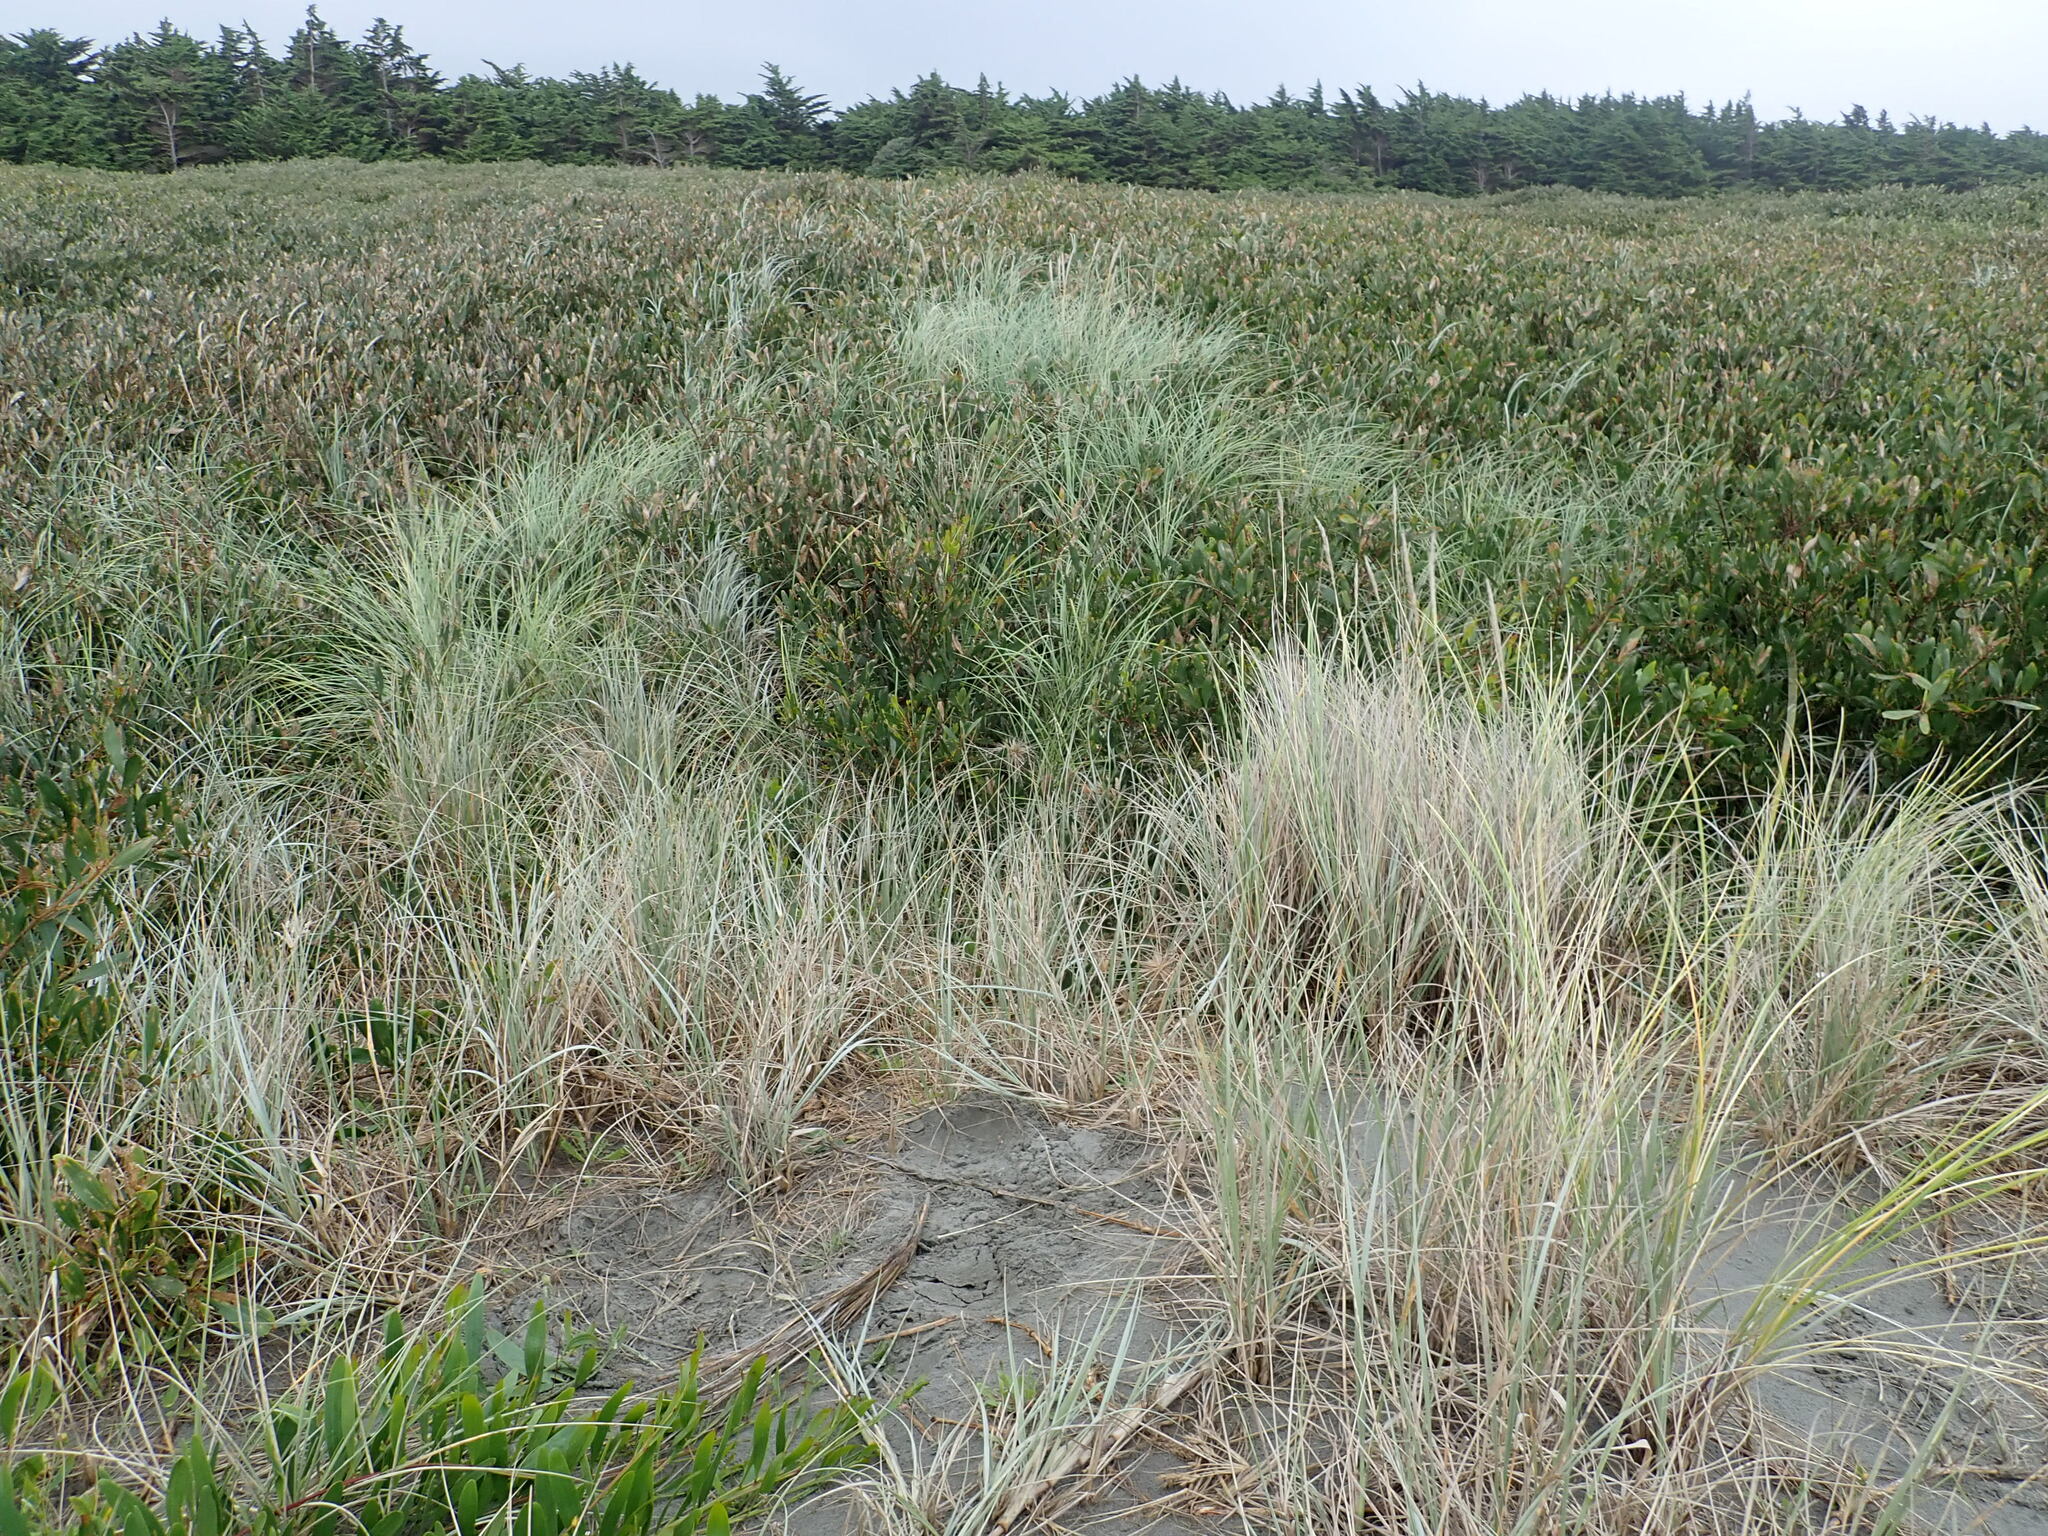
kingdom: Plantae
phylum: Tracheophyta
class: Liliopsida
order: Poales
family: Poaceae
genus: Calamagrostis
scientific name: Calamagrostis arenaria
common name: European beachgrass
